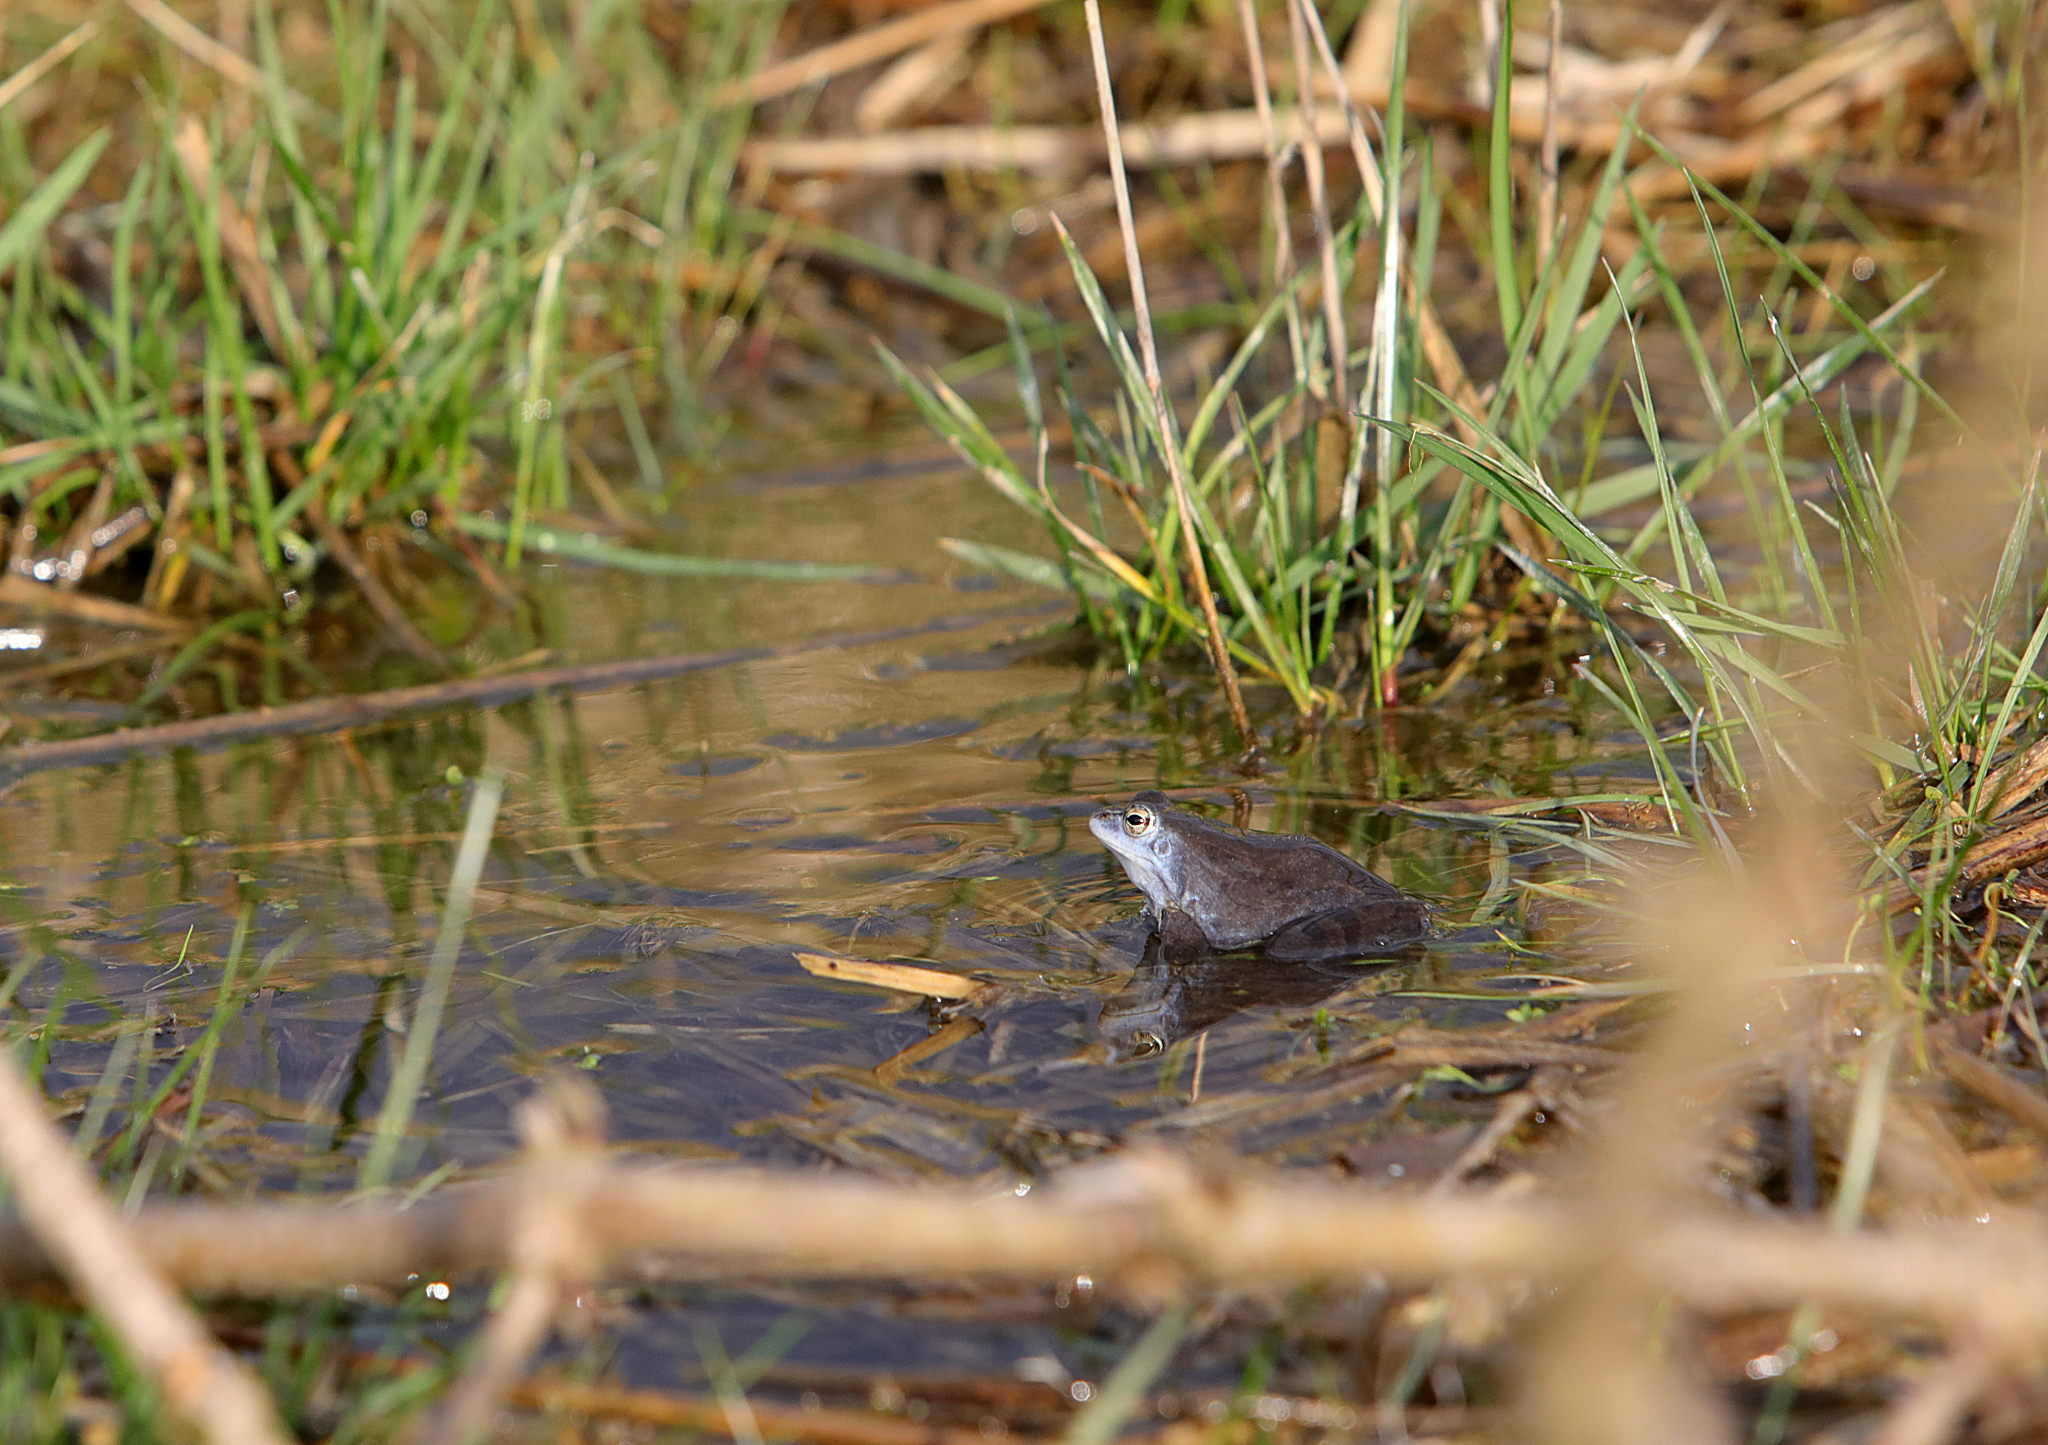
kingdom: Animalia
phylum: Chordata
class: Amphibia
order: Anura
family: Ranidae
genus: Rana
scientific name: Rana arvalis
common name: Moor frog
